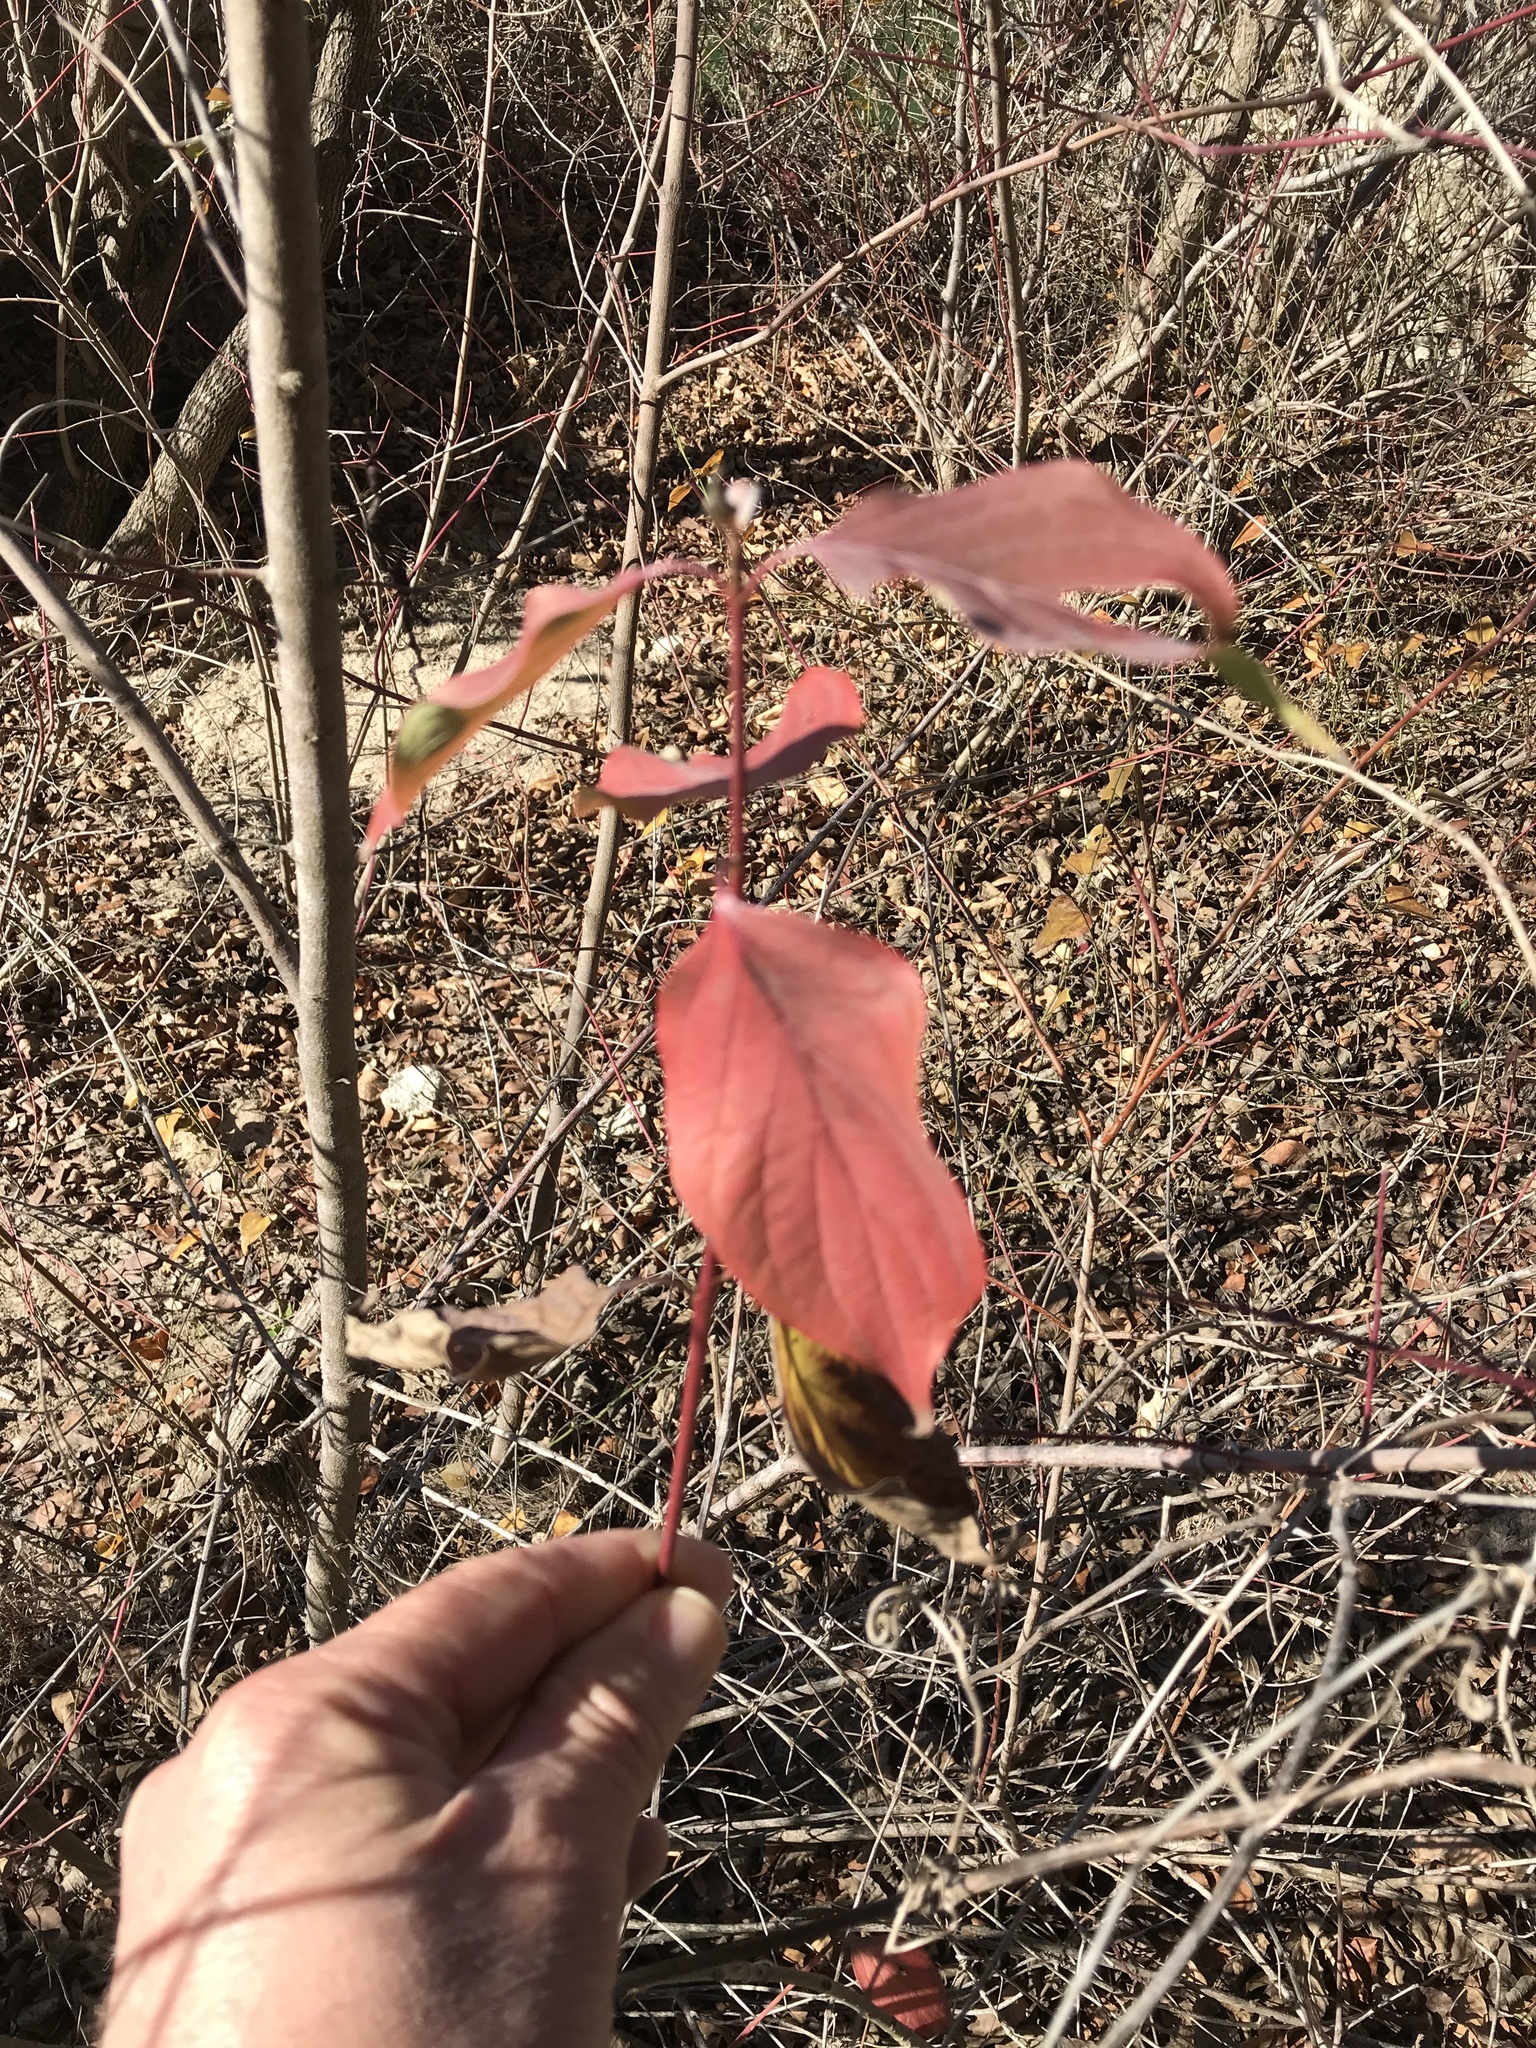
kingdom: Plantae
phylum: Tracheophyta
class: Magnoliopsida
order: Cornales
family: Cornaceae
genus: Cornus
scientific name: Cornus drummondii
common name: Rough-leaf dogwood
